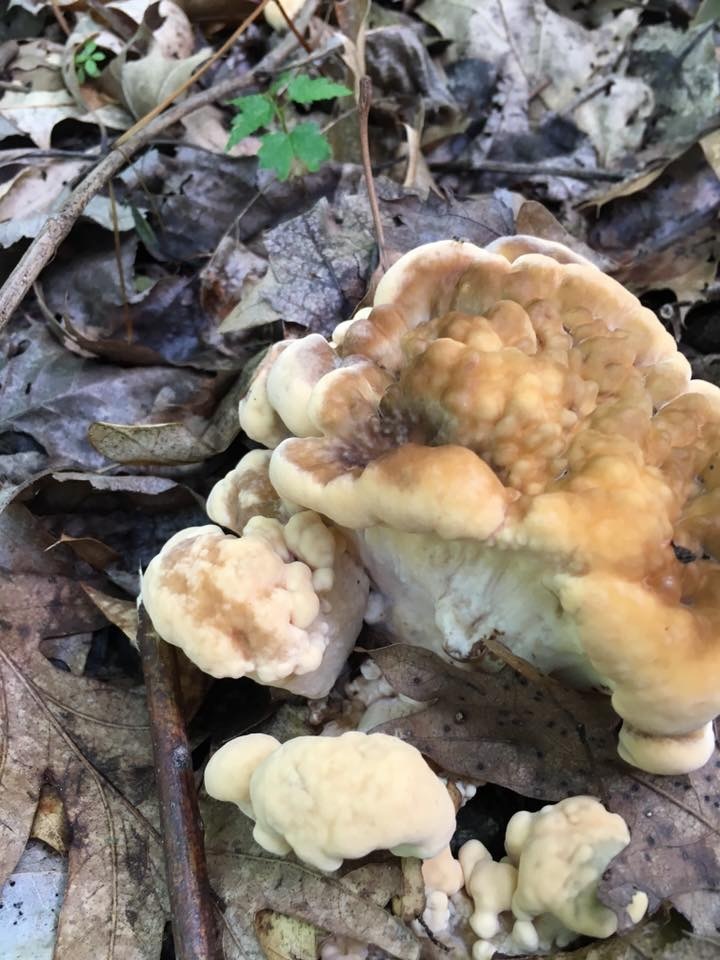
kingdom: Fungi
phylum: Basidiomycota
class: Agaricomycetes
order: Polyporales
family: Meripilaceae
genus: Meripilus
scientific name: Meripilus sumstinei
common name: Black-staining polypore
